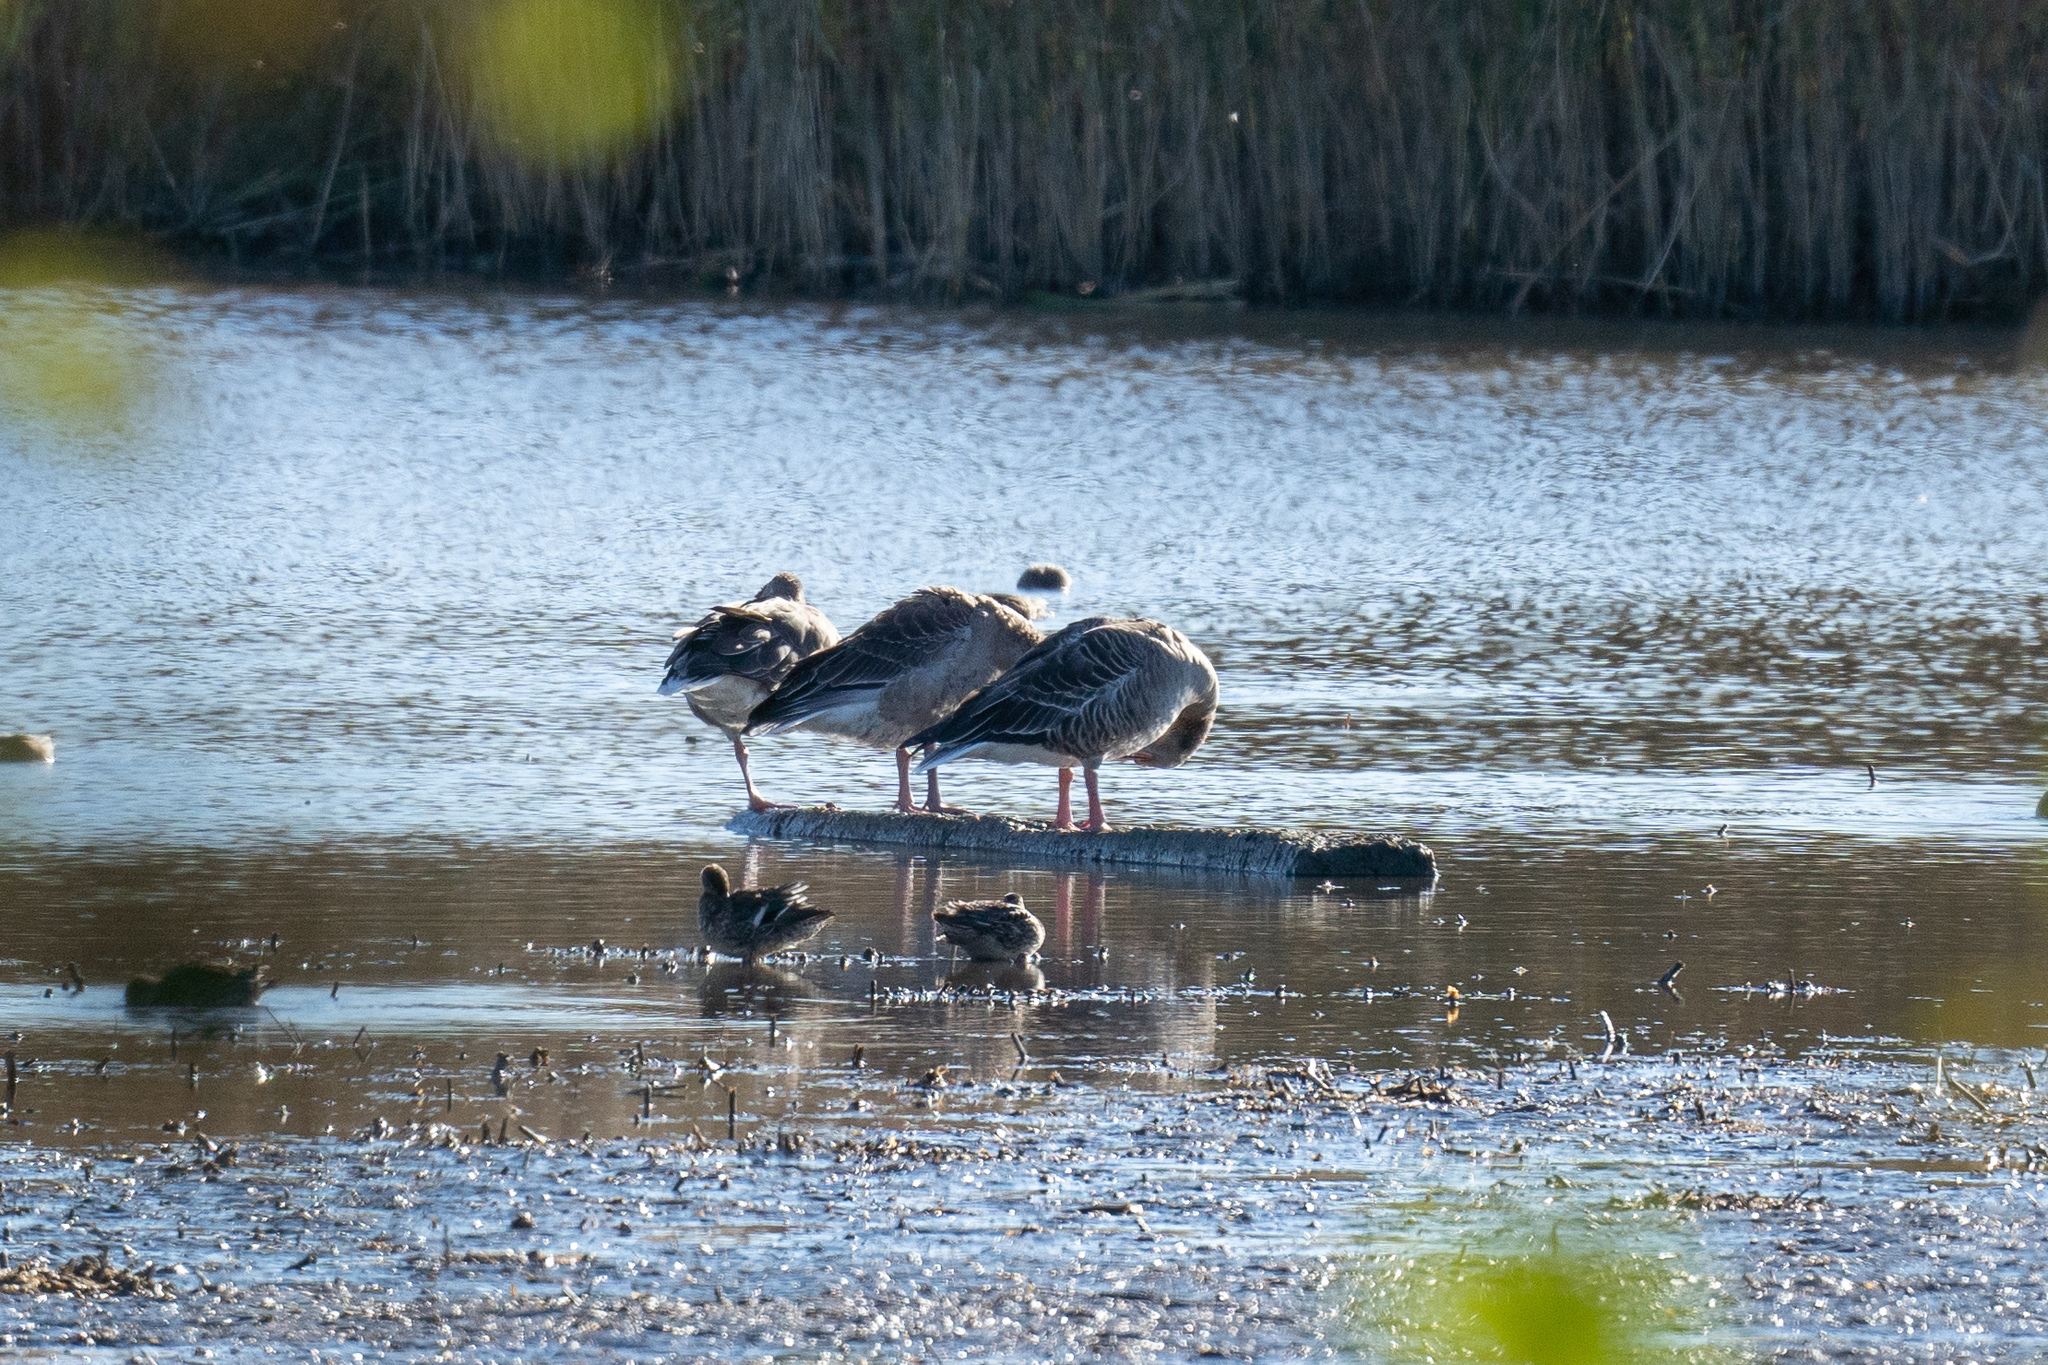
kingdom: Animalia
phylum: Chordata
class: Aves
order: Anseriformes
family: Anatidae
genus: Anser
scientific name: Anser anser
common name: Greylag goose
